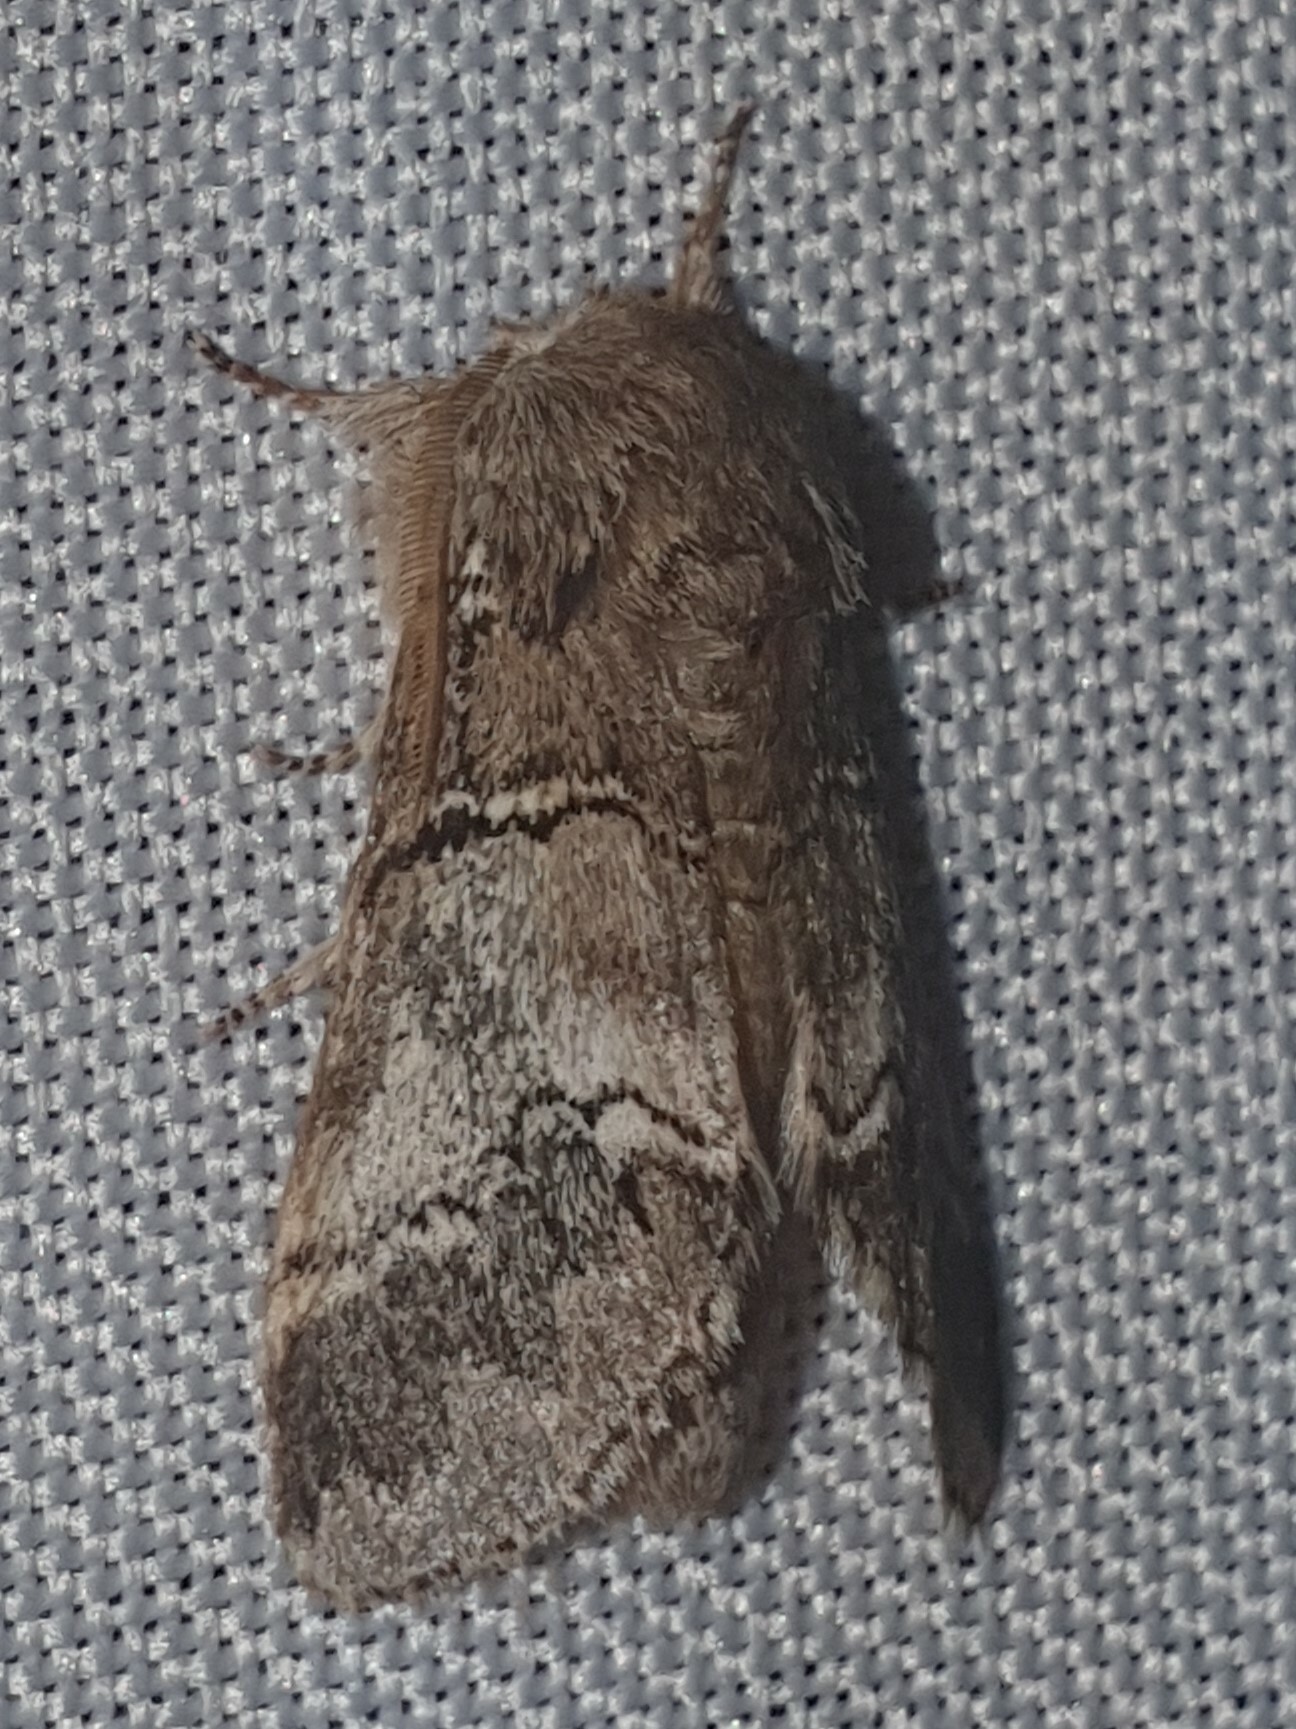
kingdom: Animalia
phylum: Arthropoda
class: Insecta
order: Lepidoptera
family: Notodontidae
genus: Drymonia
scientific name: Drymonia querna
